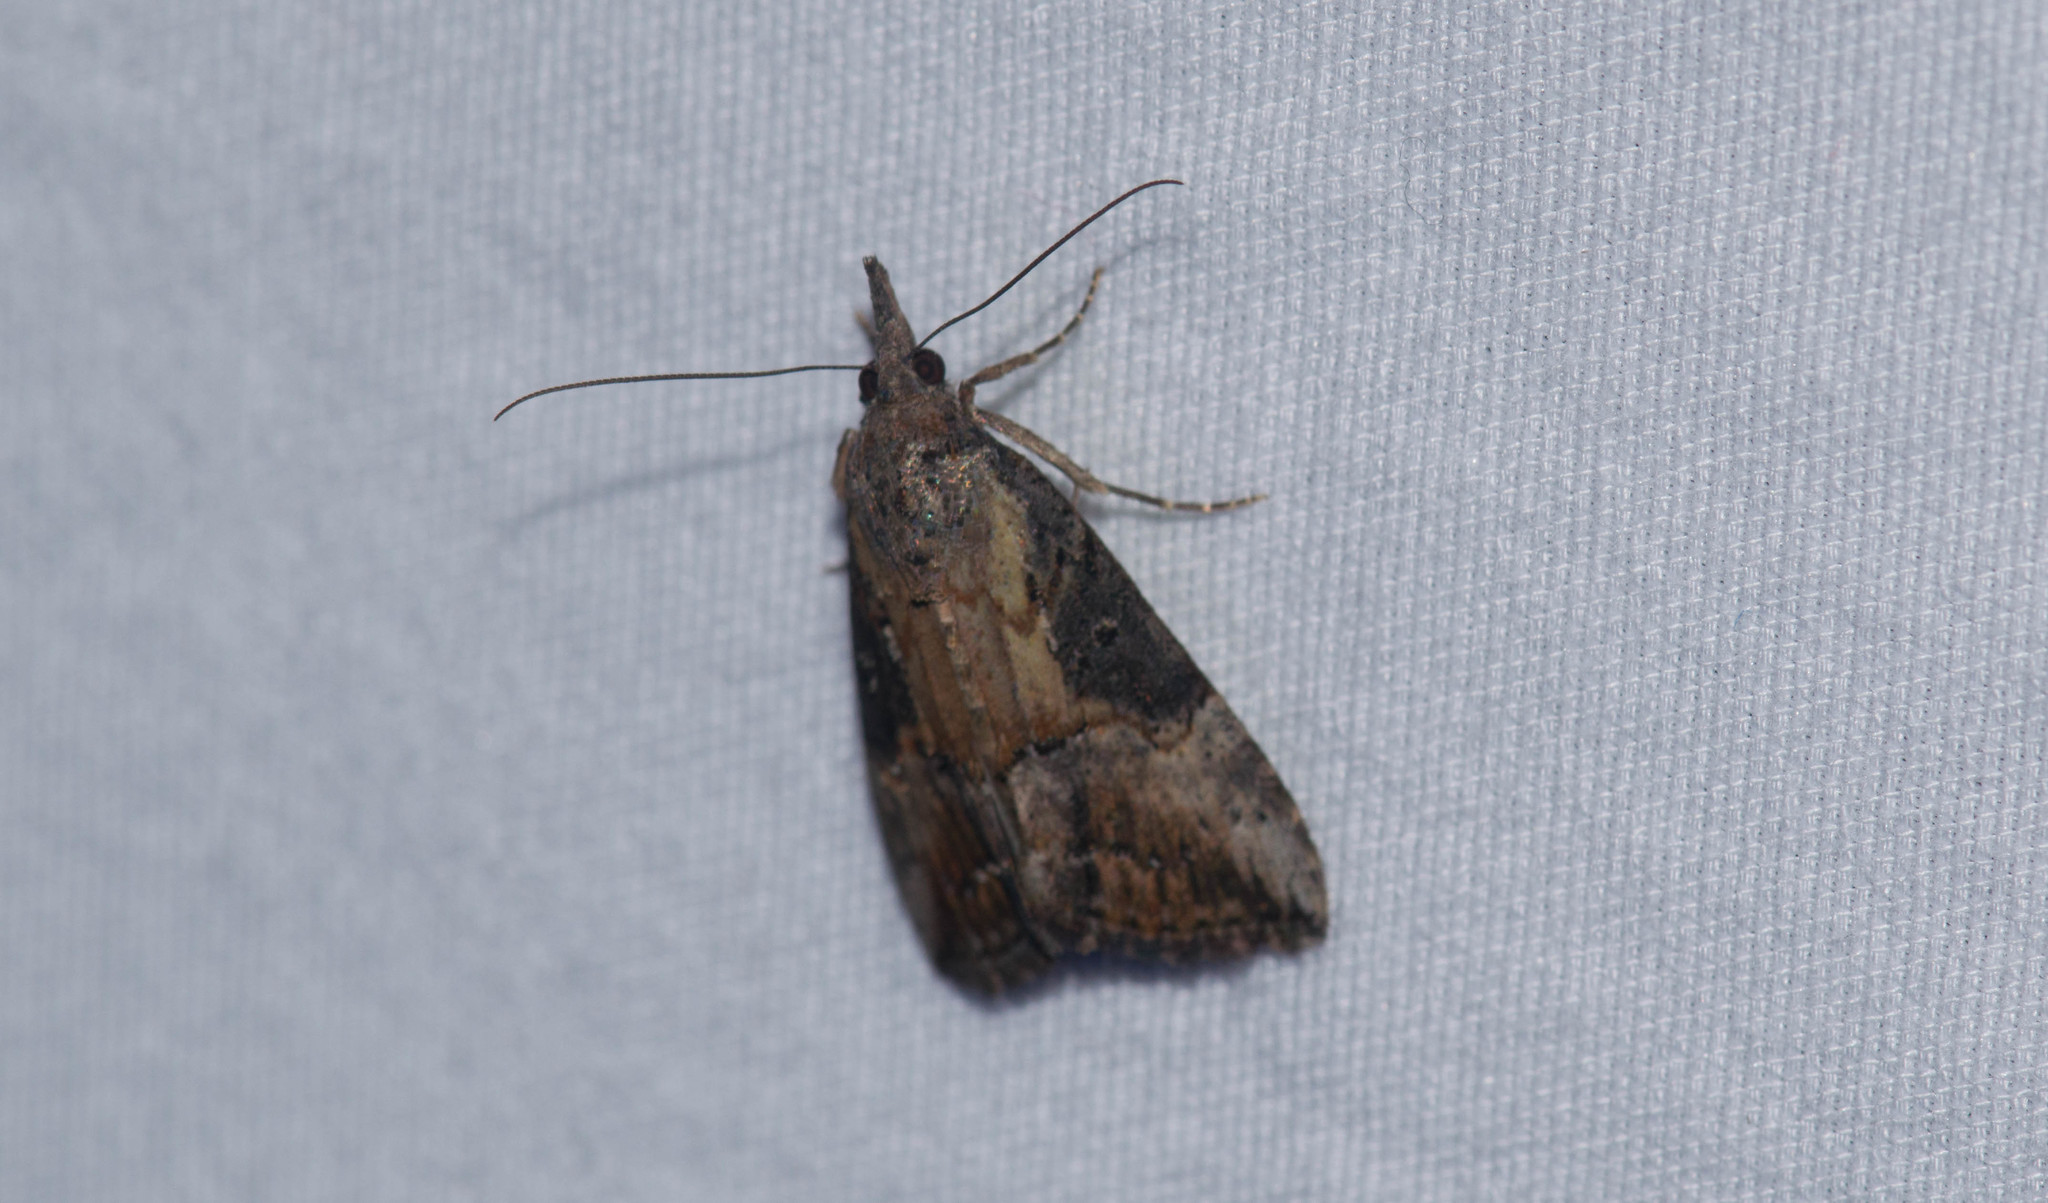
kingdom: Animalia
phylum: Arthropoda
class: Insecta
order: Lepidoptera
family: Erebidae
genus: Hypena
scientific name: Hypena scabra
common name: Green cloverworm
